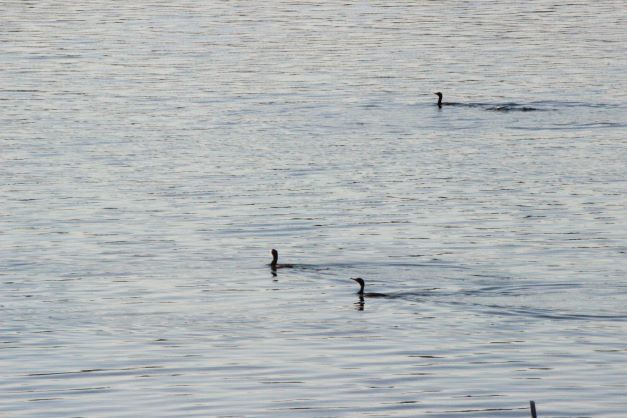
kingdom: Animalia
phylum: Chordata
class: Aves
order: Suliformes
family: Phalacrocoracidae
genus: Phalacrocorax
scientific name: Phalacrocorax auritus
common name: Double-crested cormorant
